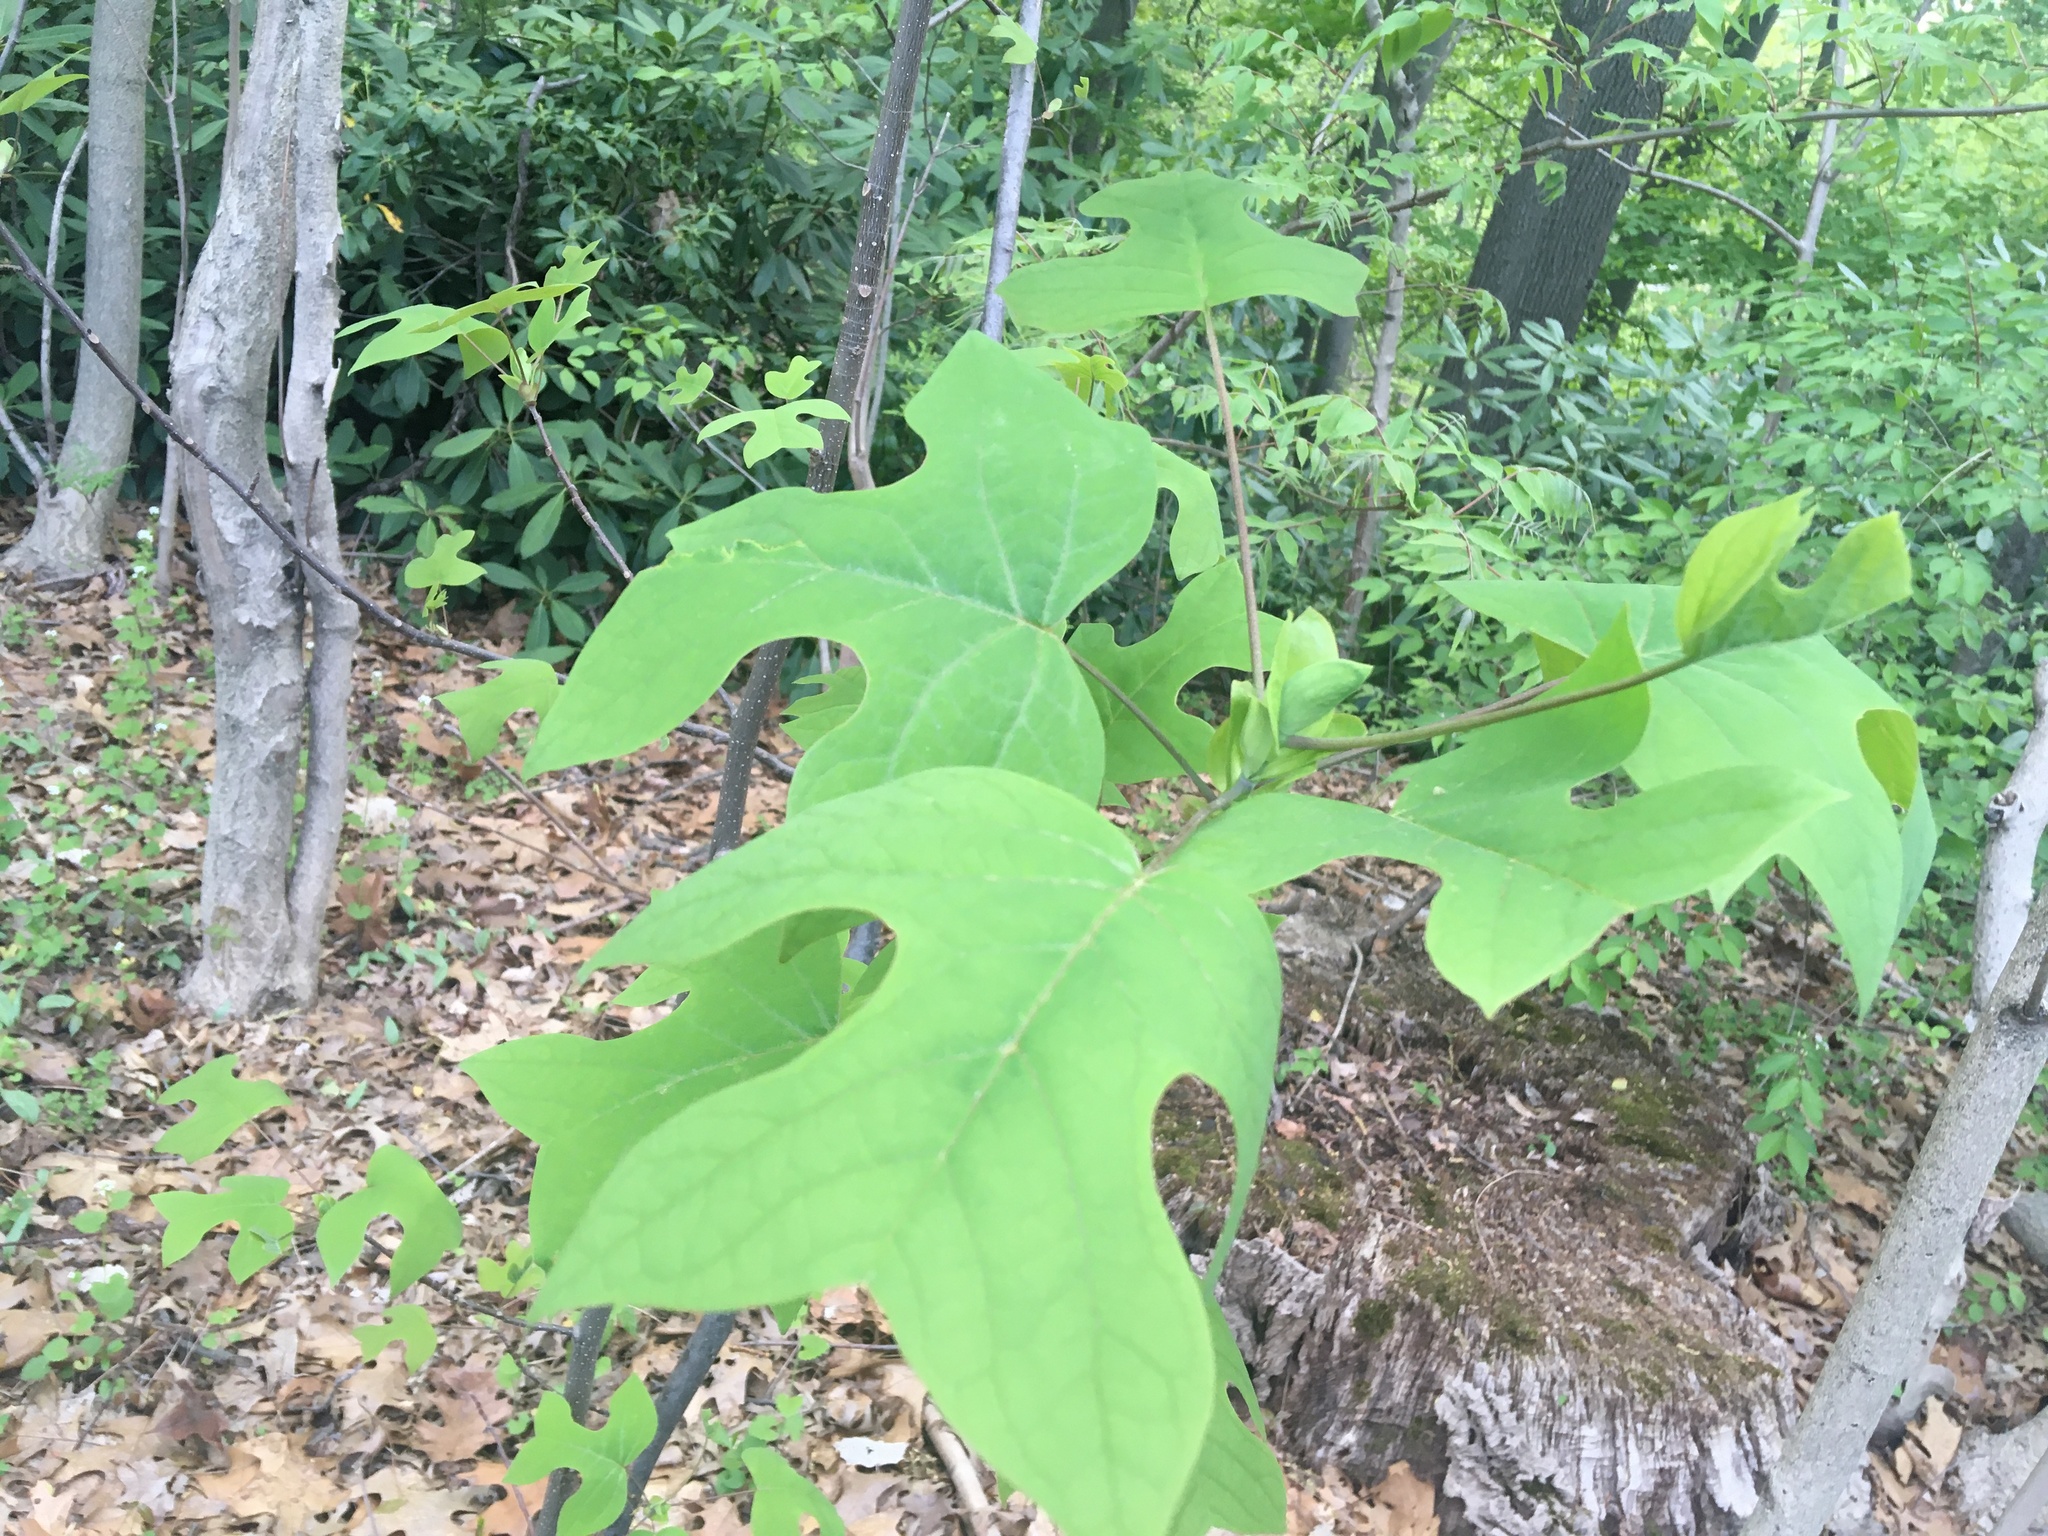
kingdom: Plantae
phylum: Tracheophyta
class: Magnoliopsida
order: Magnoliales
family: Magnoliaceae
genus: Liriodendron
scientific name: Liriodendron tulipifera
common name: Tulip tree
